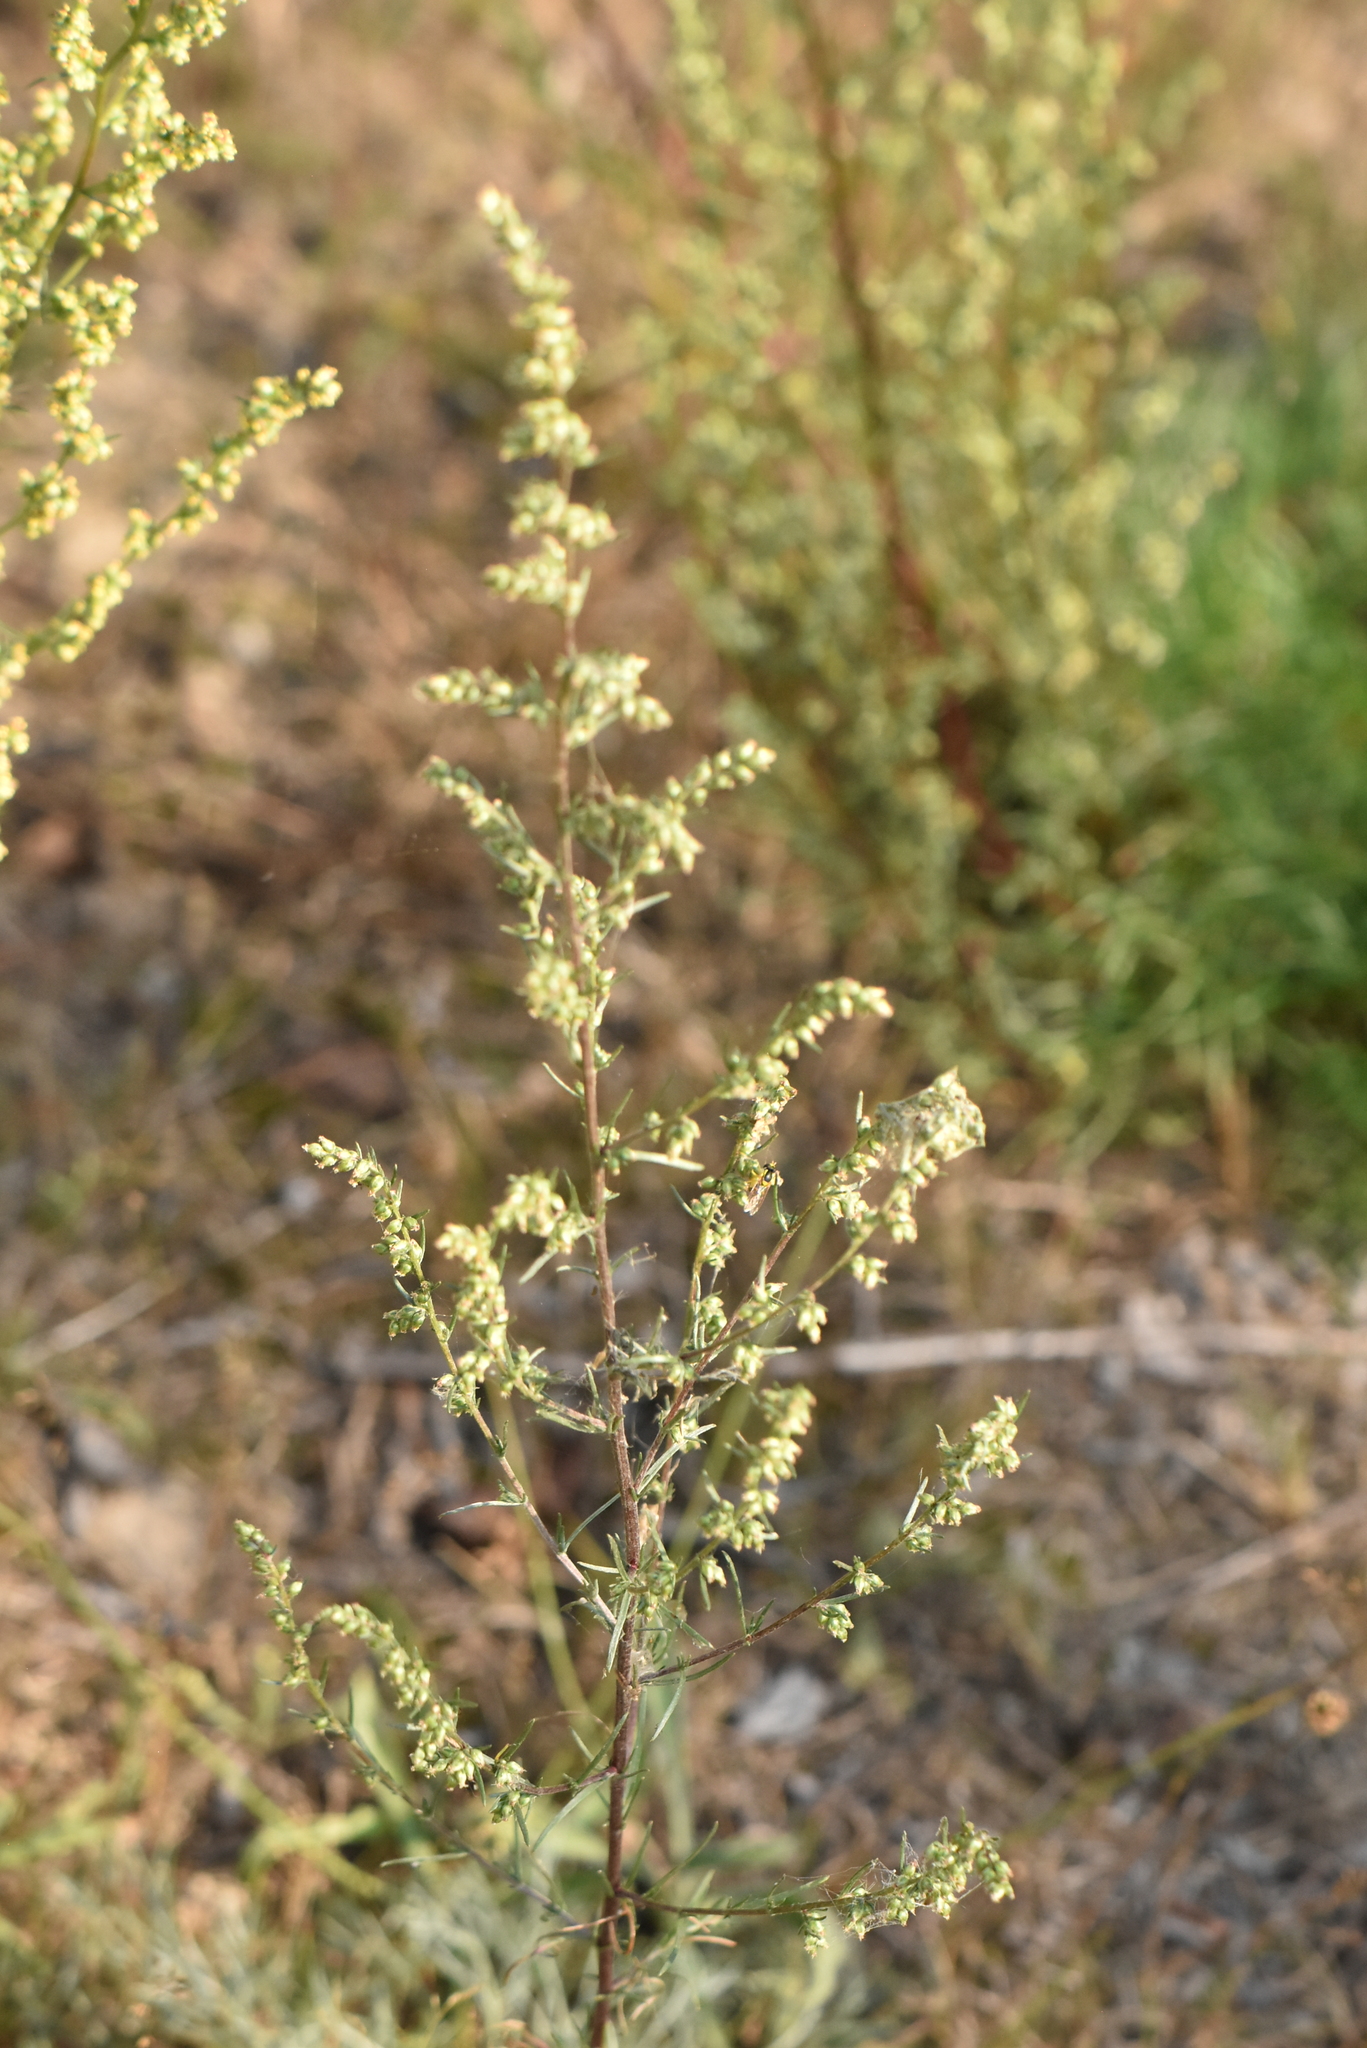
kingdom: Plantae
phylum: Tracheophyta
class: Magnoliopsida
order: Asterales
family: Asteraceae
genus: Artemisia
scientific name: Artemisia campestris
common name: Field wormwood
